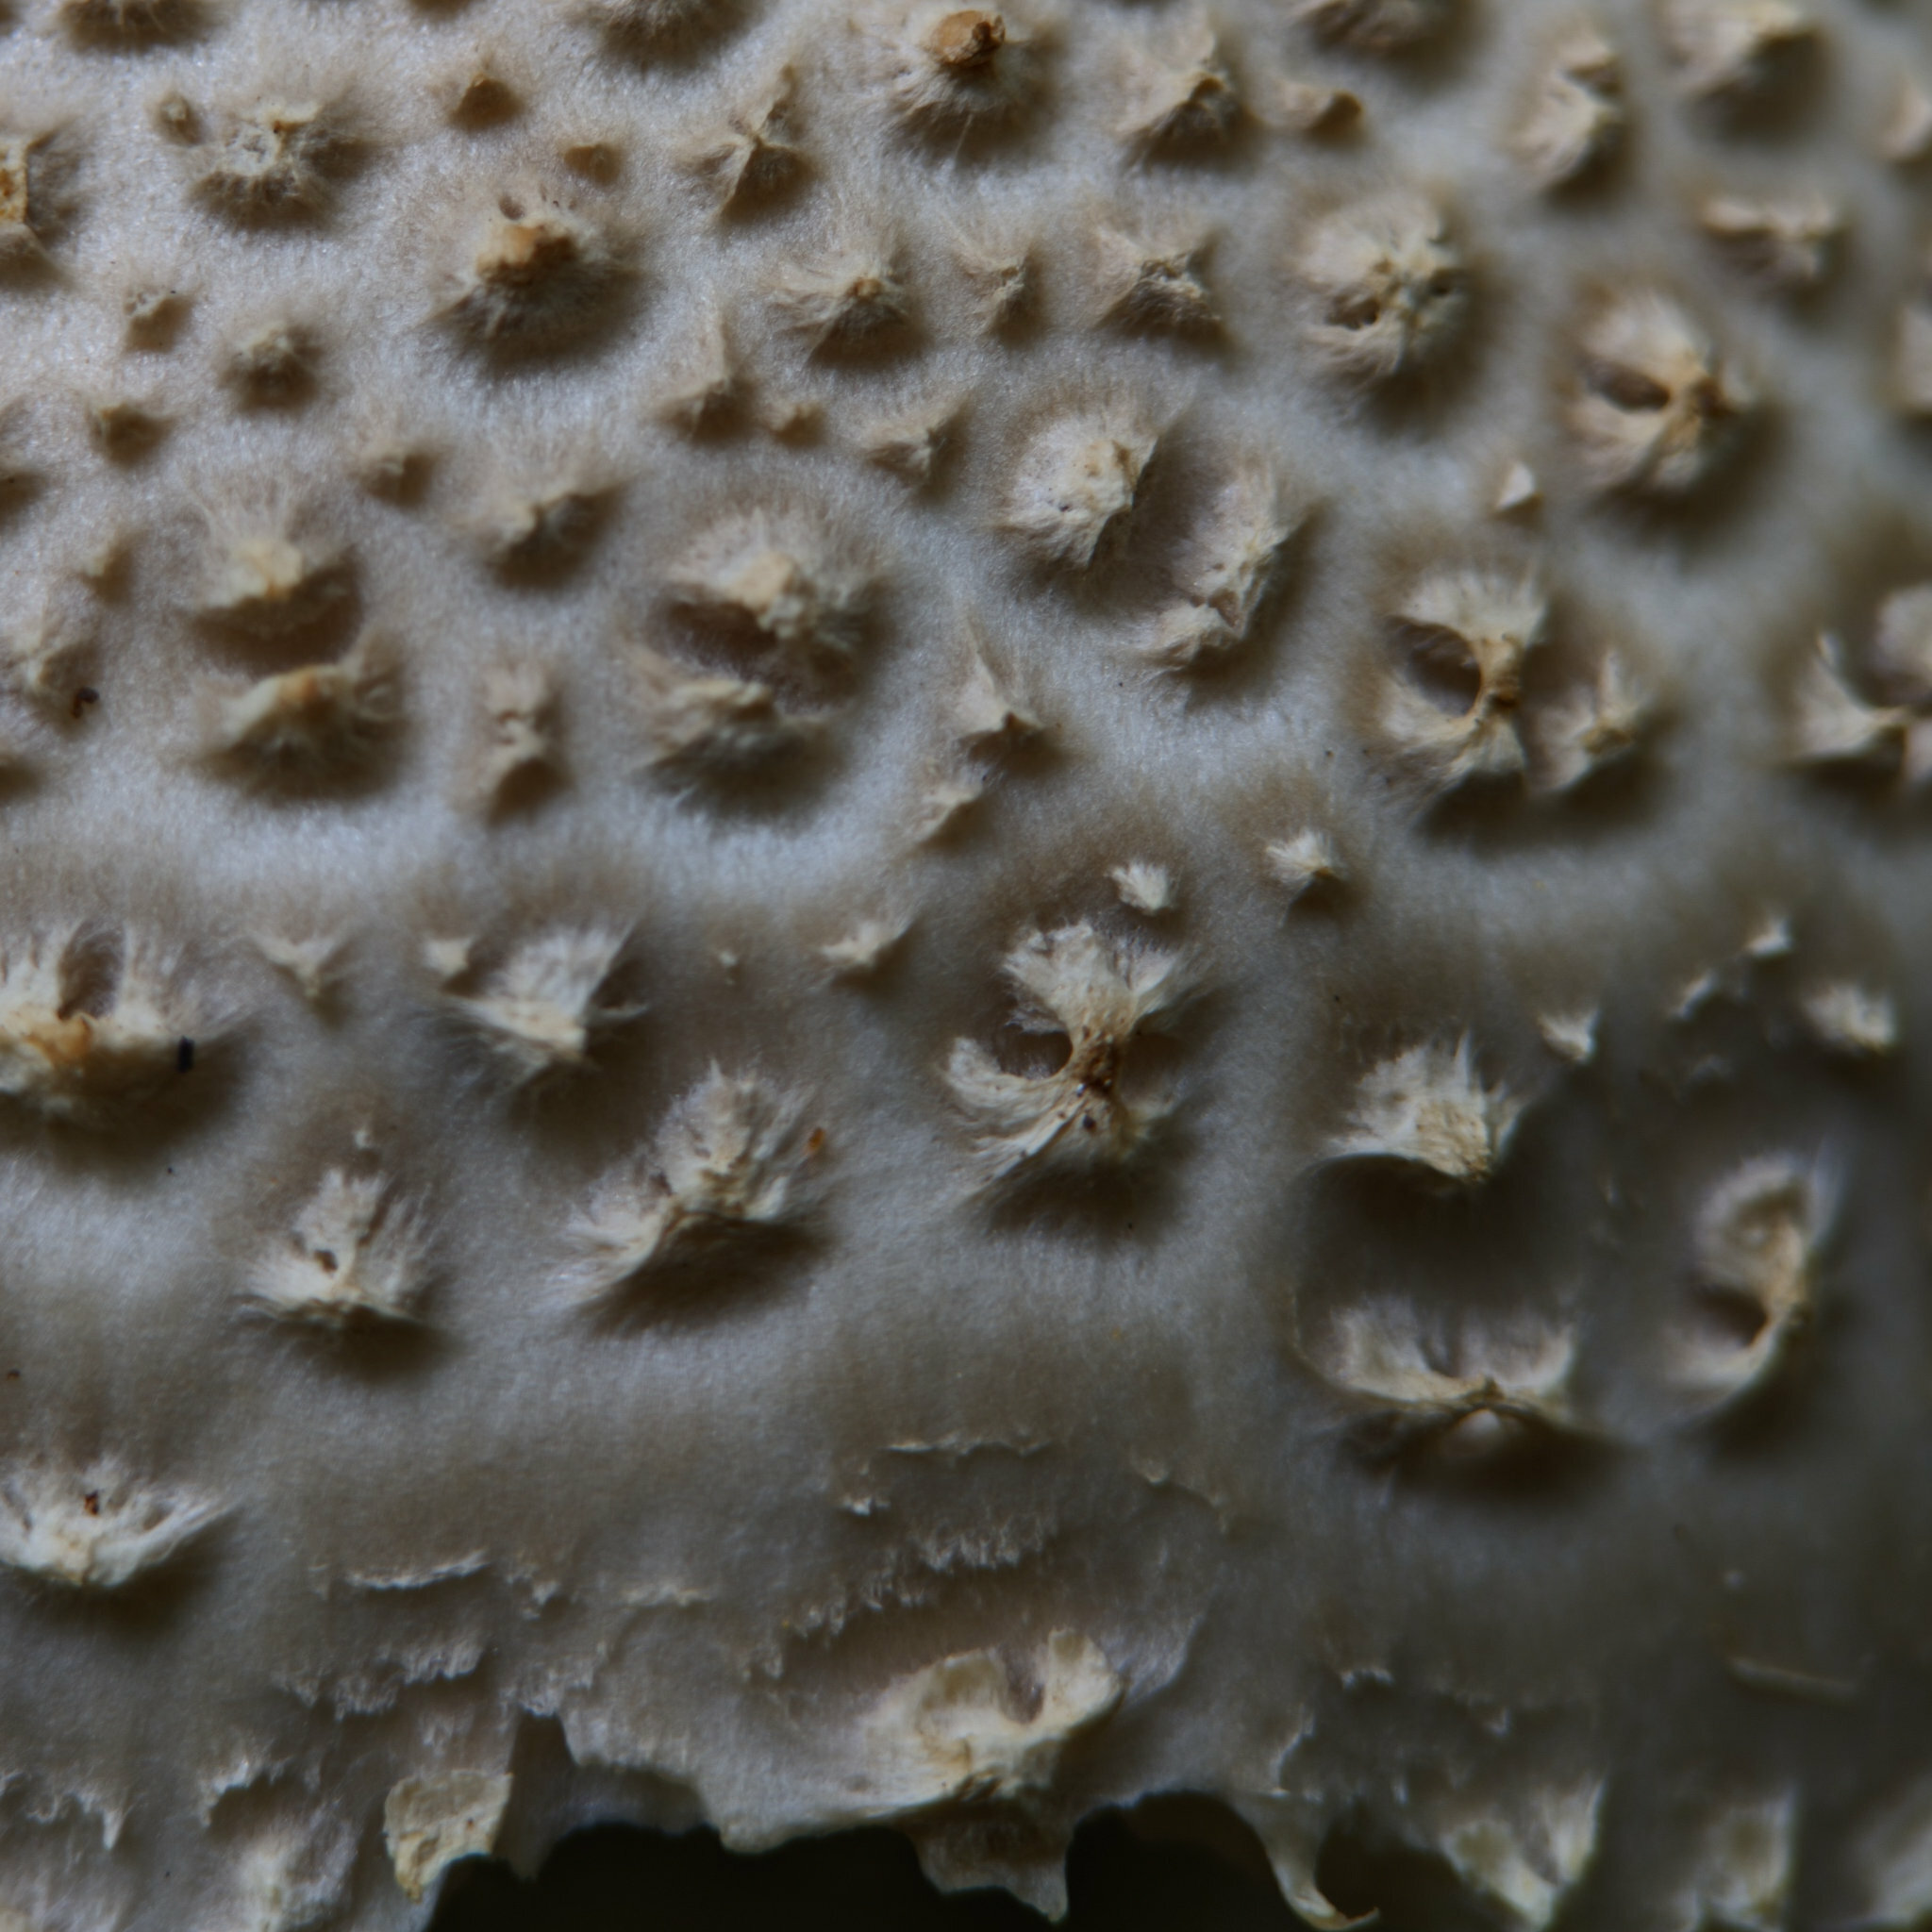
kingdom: Fungi
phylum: Basidiomycota
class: Agaricomycetes
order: Agaricales
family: Amanitaceae
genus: Amanita
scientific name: Amanita echinocephala
